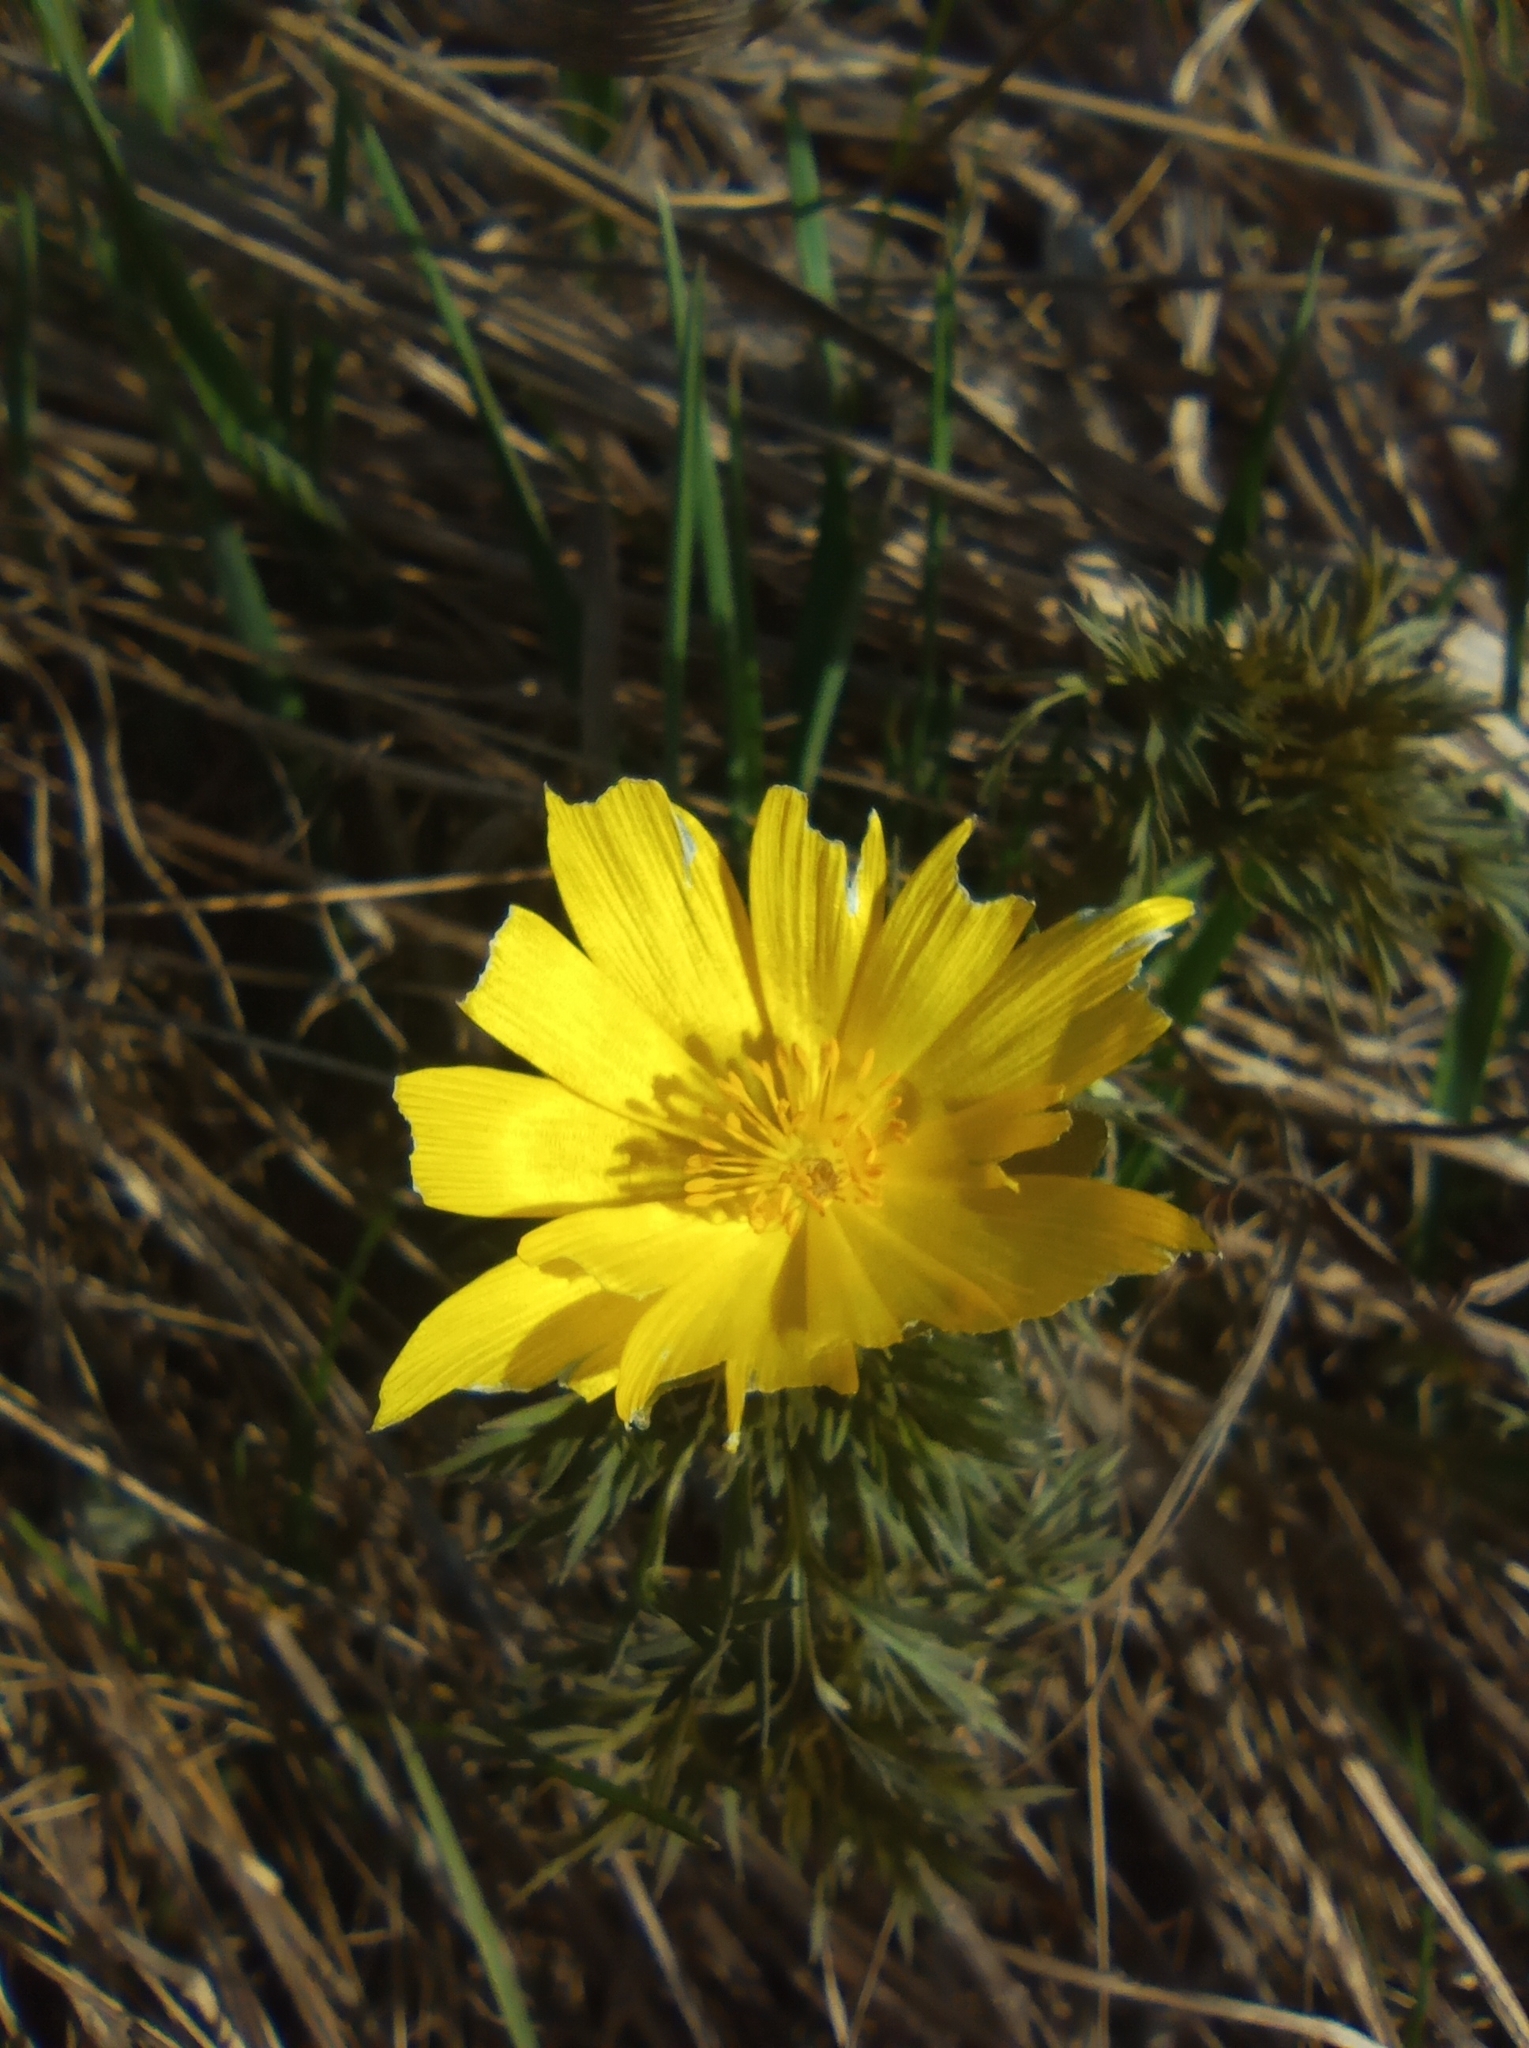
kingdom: Plantae
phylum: Tracheophyta
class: Magnoliopsida
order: Ranunculales
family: Ranunculaceae
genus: Adonis
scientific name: Adonis volgensis
